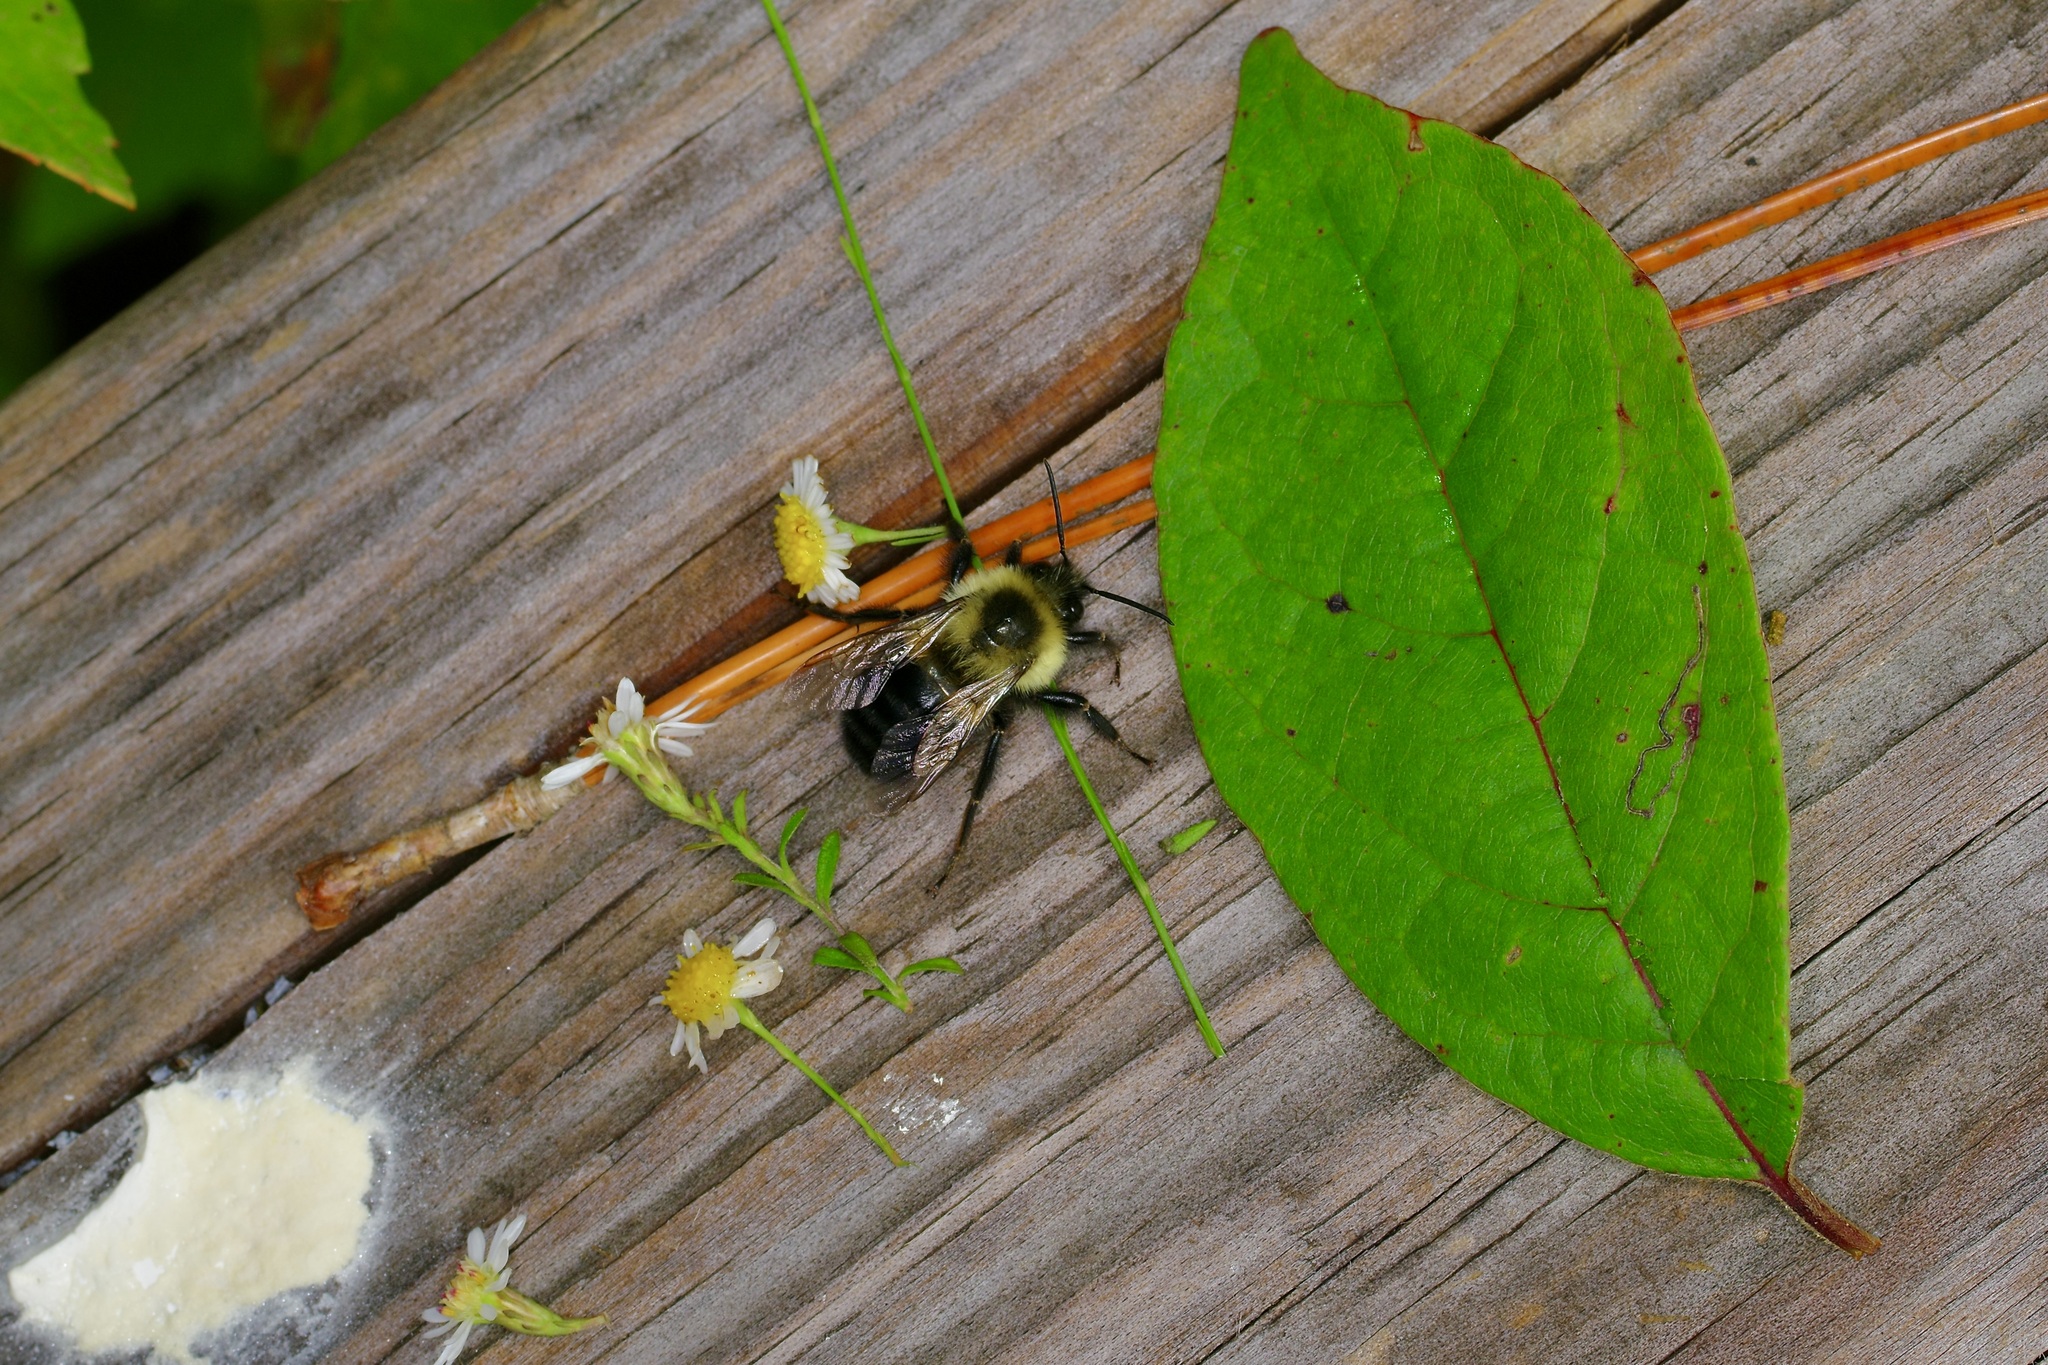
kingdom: Animalia
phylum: Arthropoda
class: Insecta
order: Hymenoptera
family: Apidae
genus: Bombus
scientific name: Bombus impatiens
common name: Common eastern bumble bee
